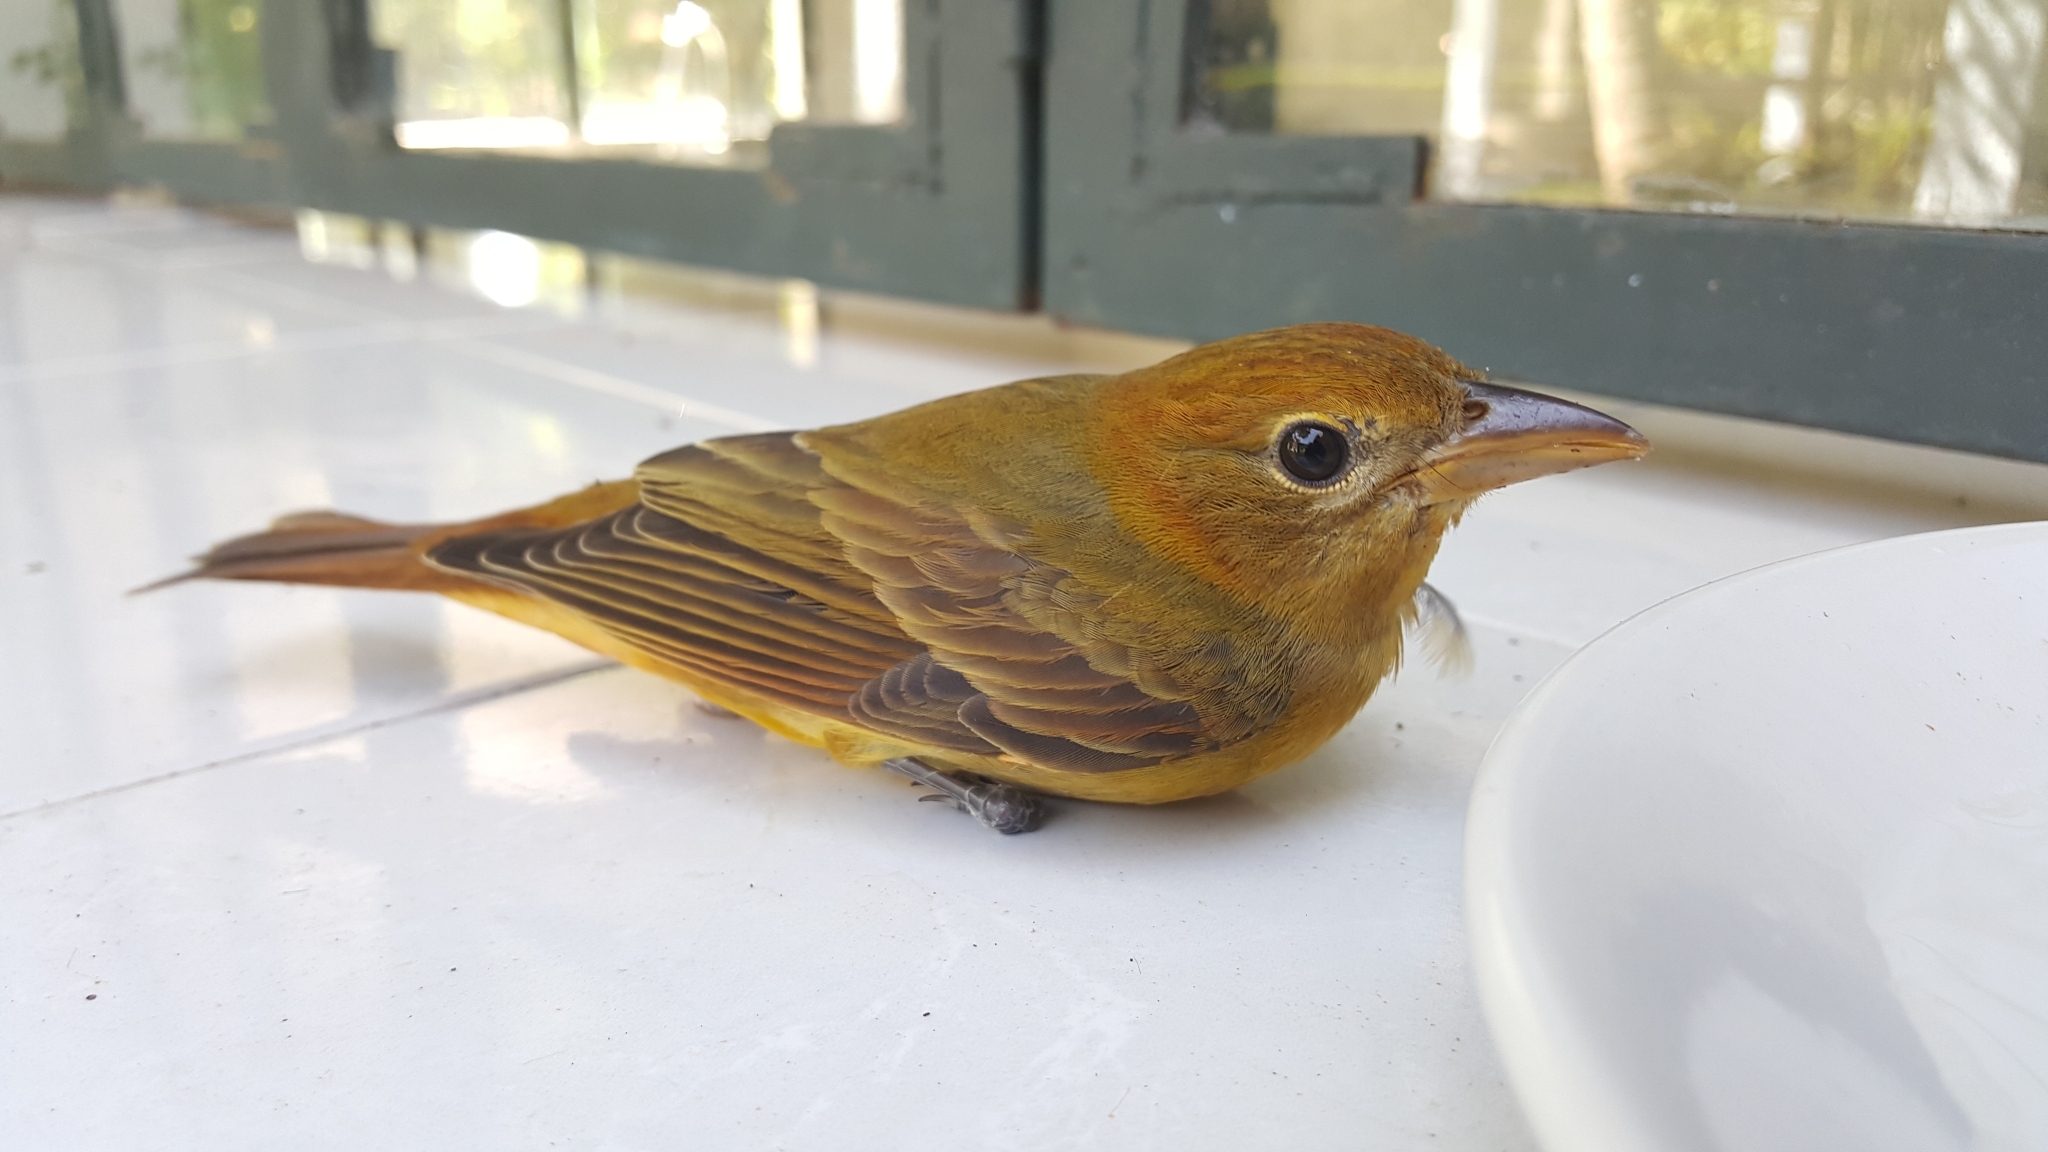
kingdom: Animalia
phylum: Chordata
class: Aves
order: Passeriformes
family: Cardinalidae
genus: Piranga
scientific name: Piranga rubra
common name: Summer tanager
